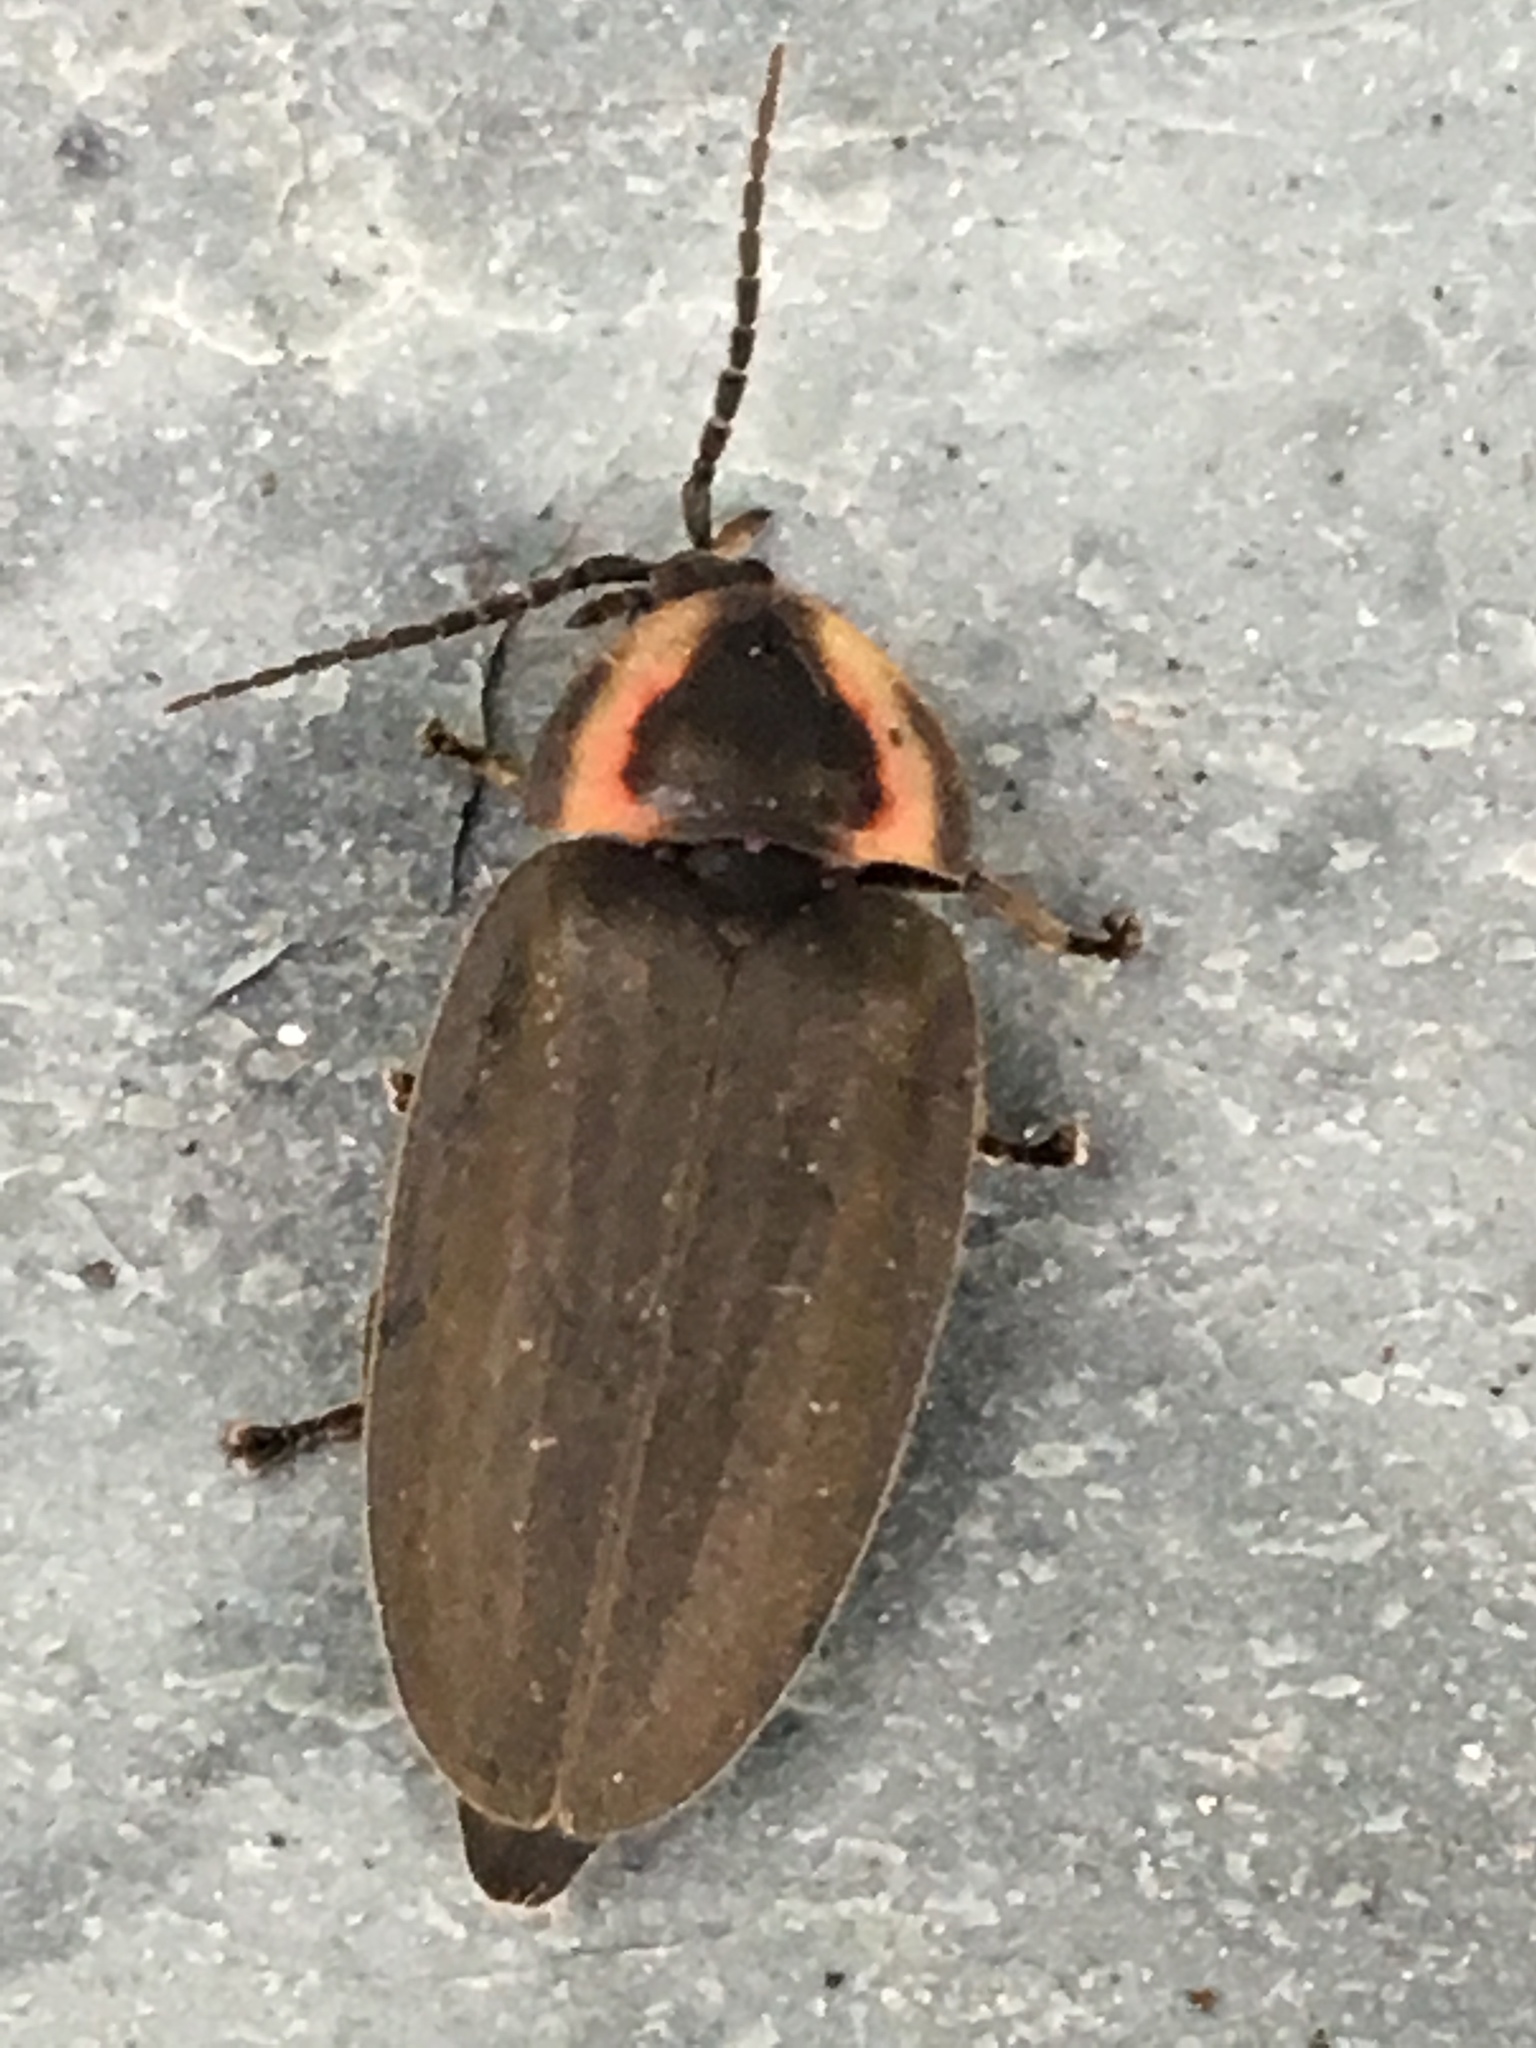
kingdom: Animalia
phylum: Arthropoda
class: Insecta
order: Coleoptera
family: Lampyridae
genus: Photinus
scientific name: Photinus corrusca
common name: Winter firefly
